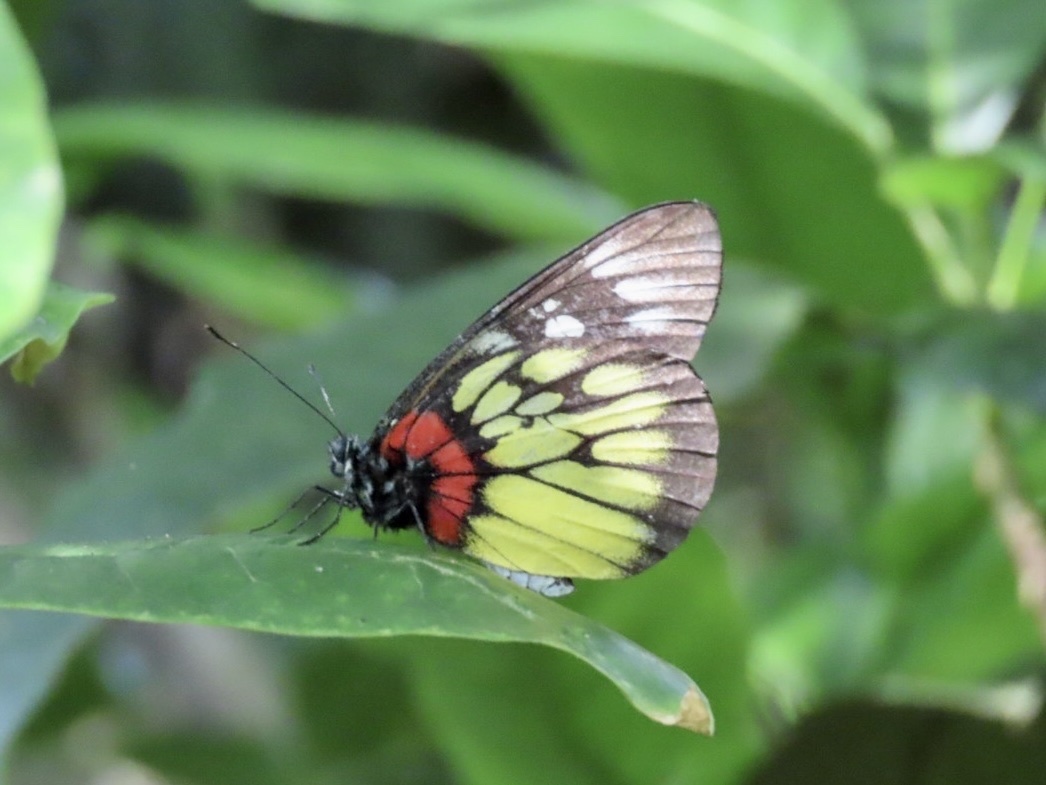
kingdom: Animalia
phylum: Arthropoda
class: Insecta
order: Lepidoptera
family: Pieridae
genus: Delias
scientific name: Delias pasithoe
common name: Red-base jezebel
